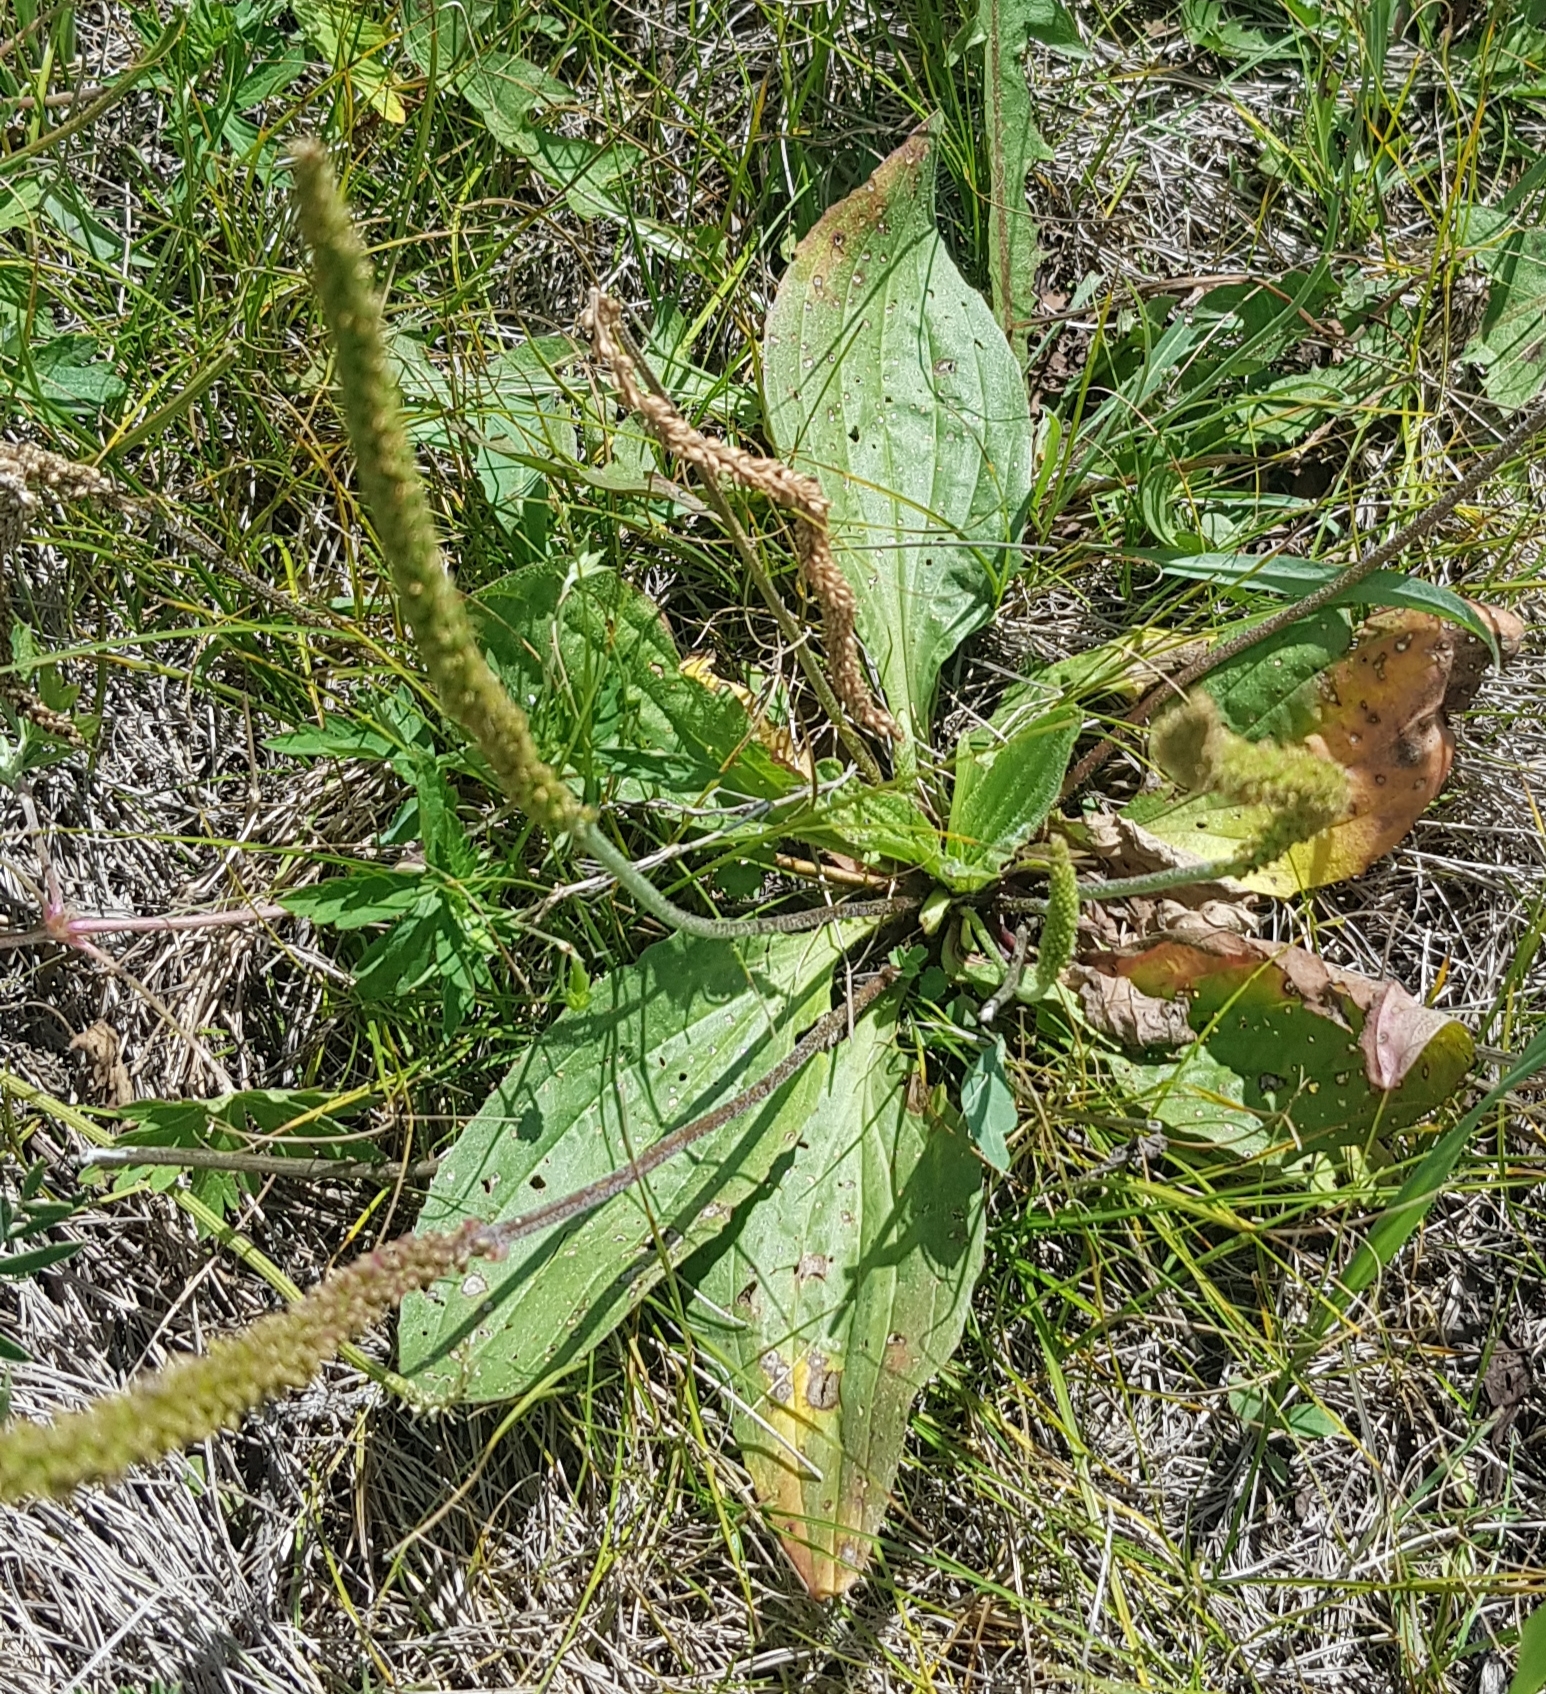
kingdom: Plantae
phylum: Tracheophyta
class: Magnoliopsida
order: Lamiales
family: Plantaginaceae
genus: Plantago
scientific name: Plantago urvillei
